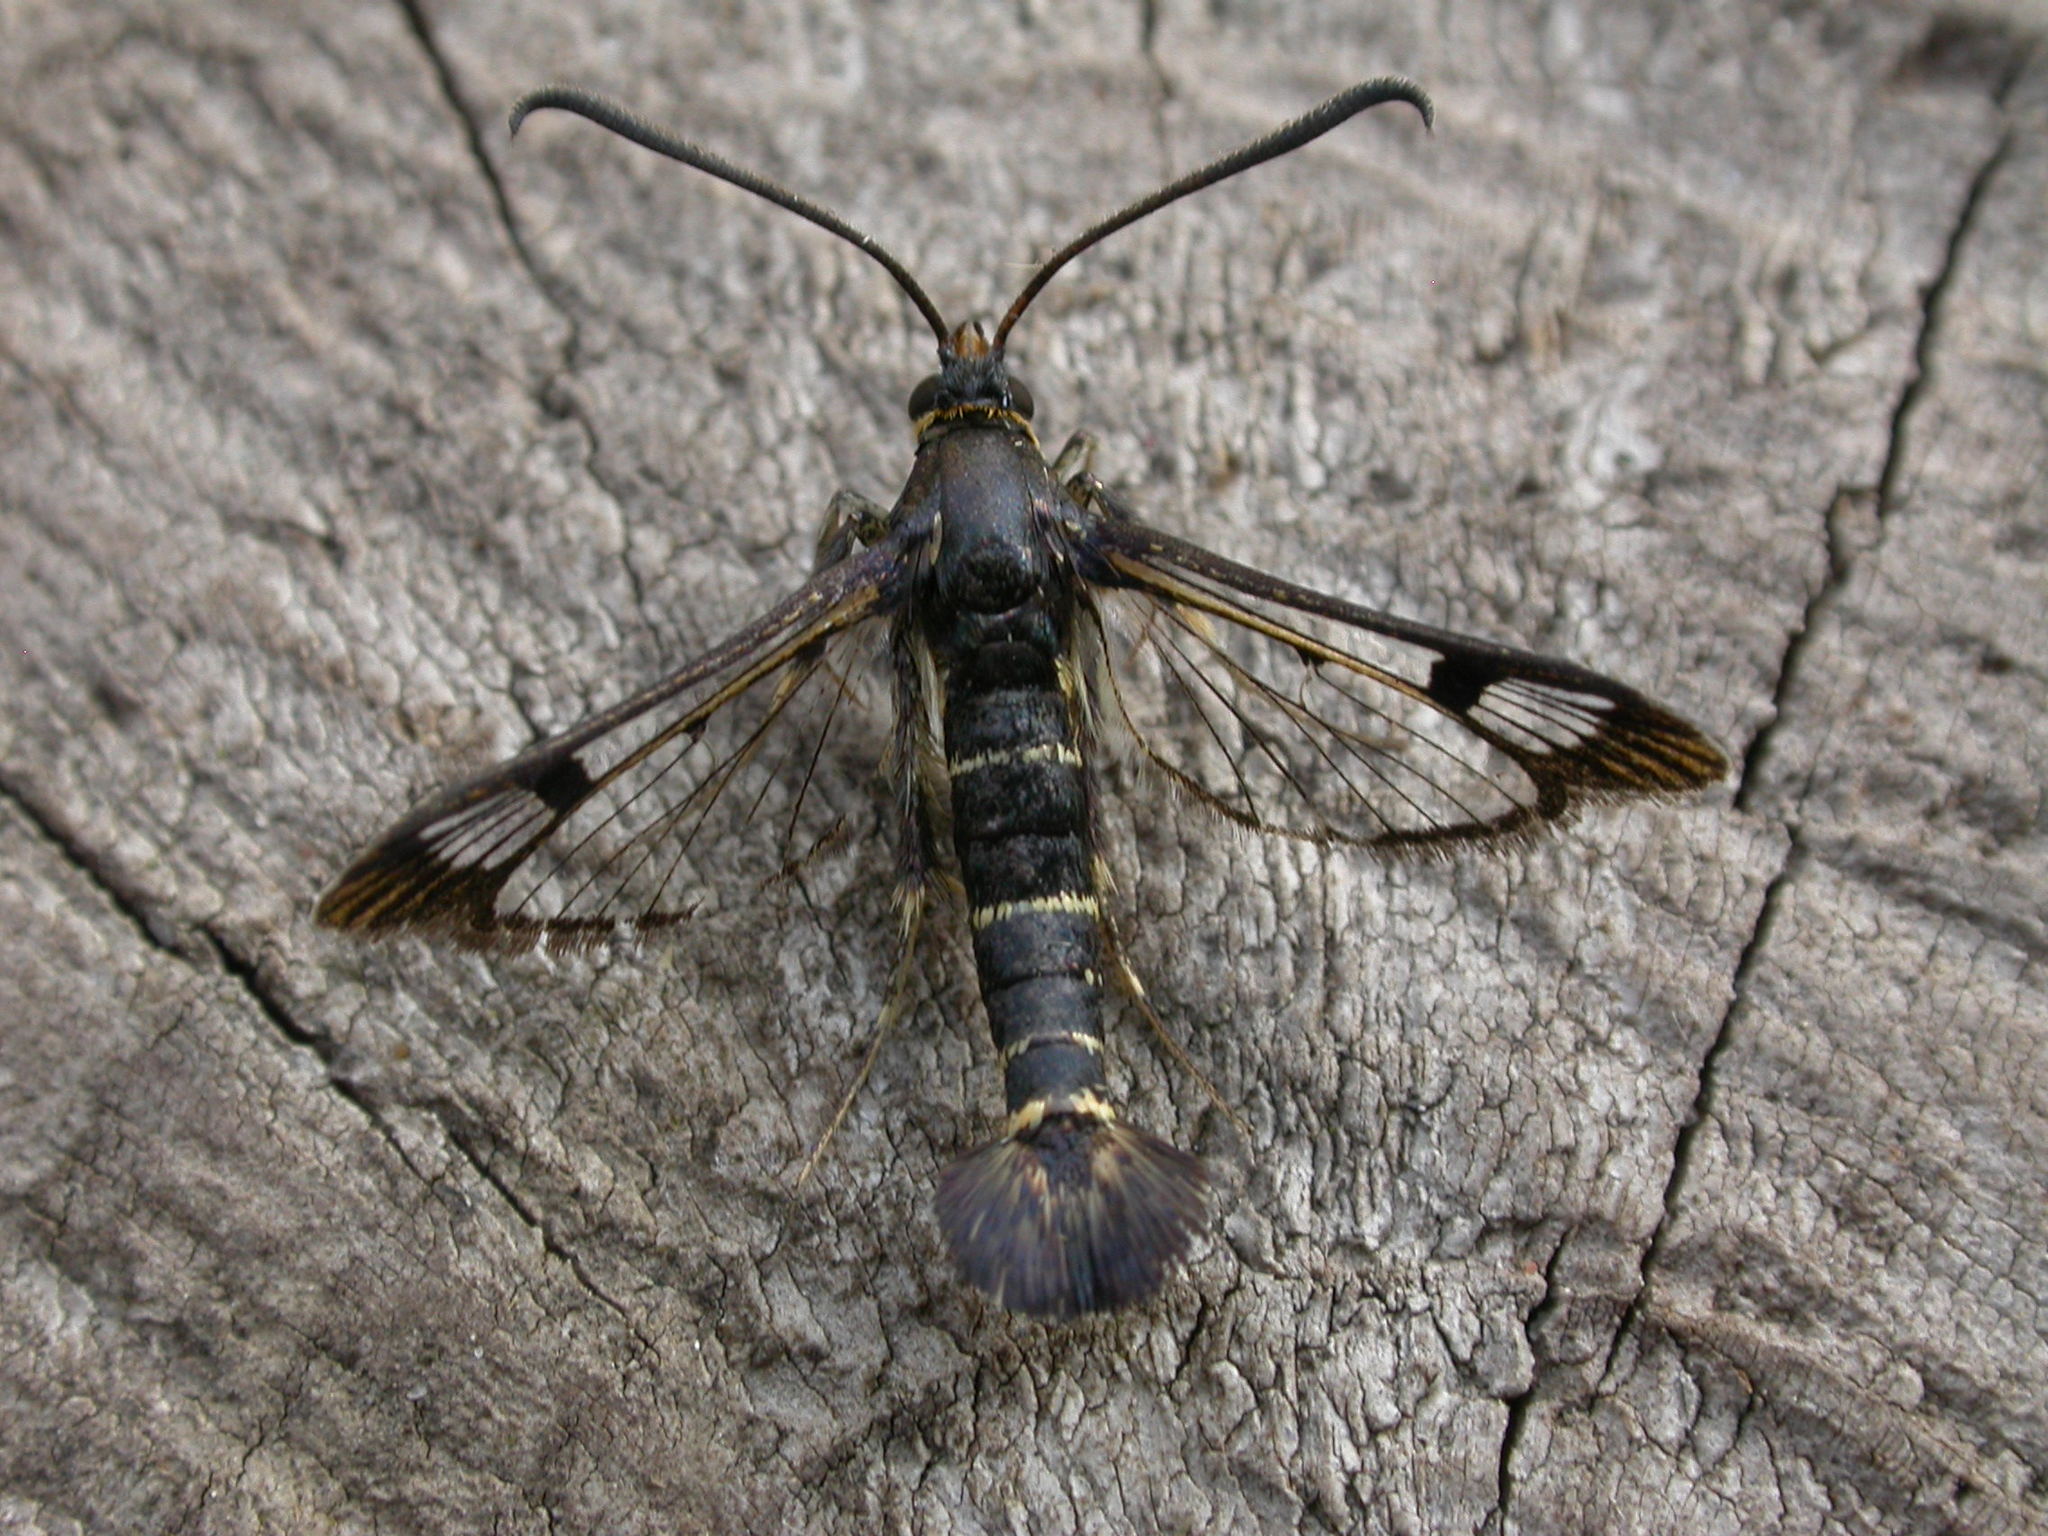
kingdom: Animalia
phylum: Arthropoda
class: Insecta
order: Lepidoptera
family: Sesiidae
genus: Synanthedon
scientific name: Synanthedon tipuliformis
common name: Currant clearwing
